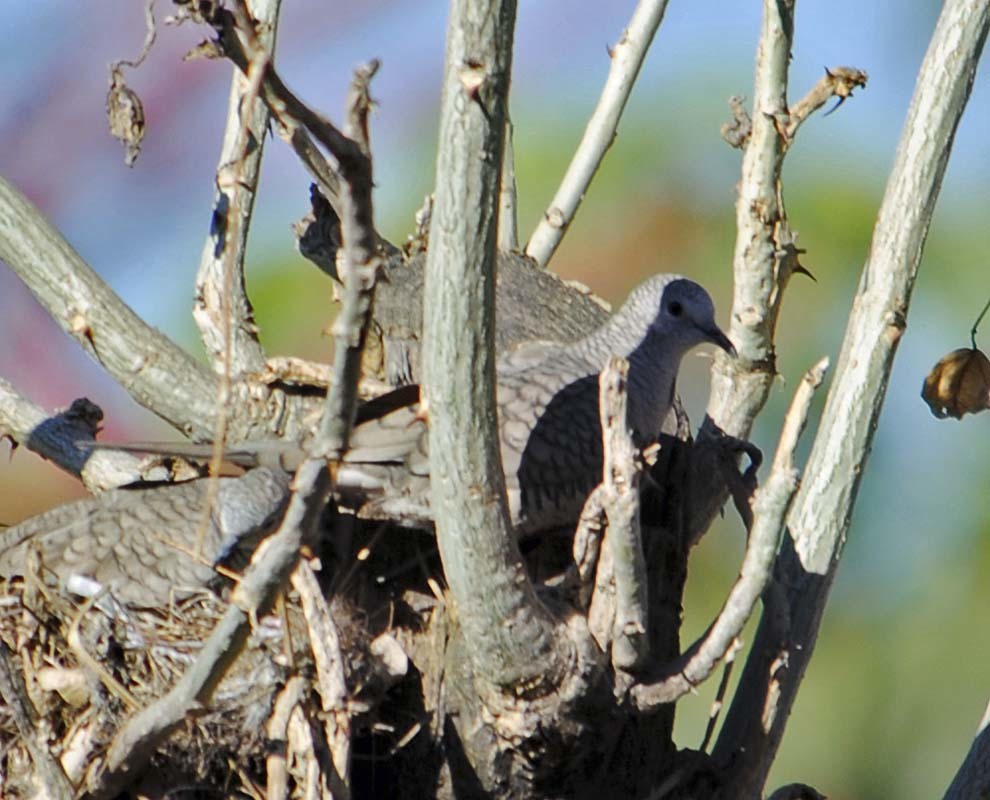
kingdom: Animalia
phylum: Chordata
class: Aves
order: Columbiformes
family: Columbidae
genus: Columbina
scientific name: Columbina inca
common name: Inca dove
